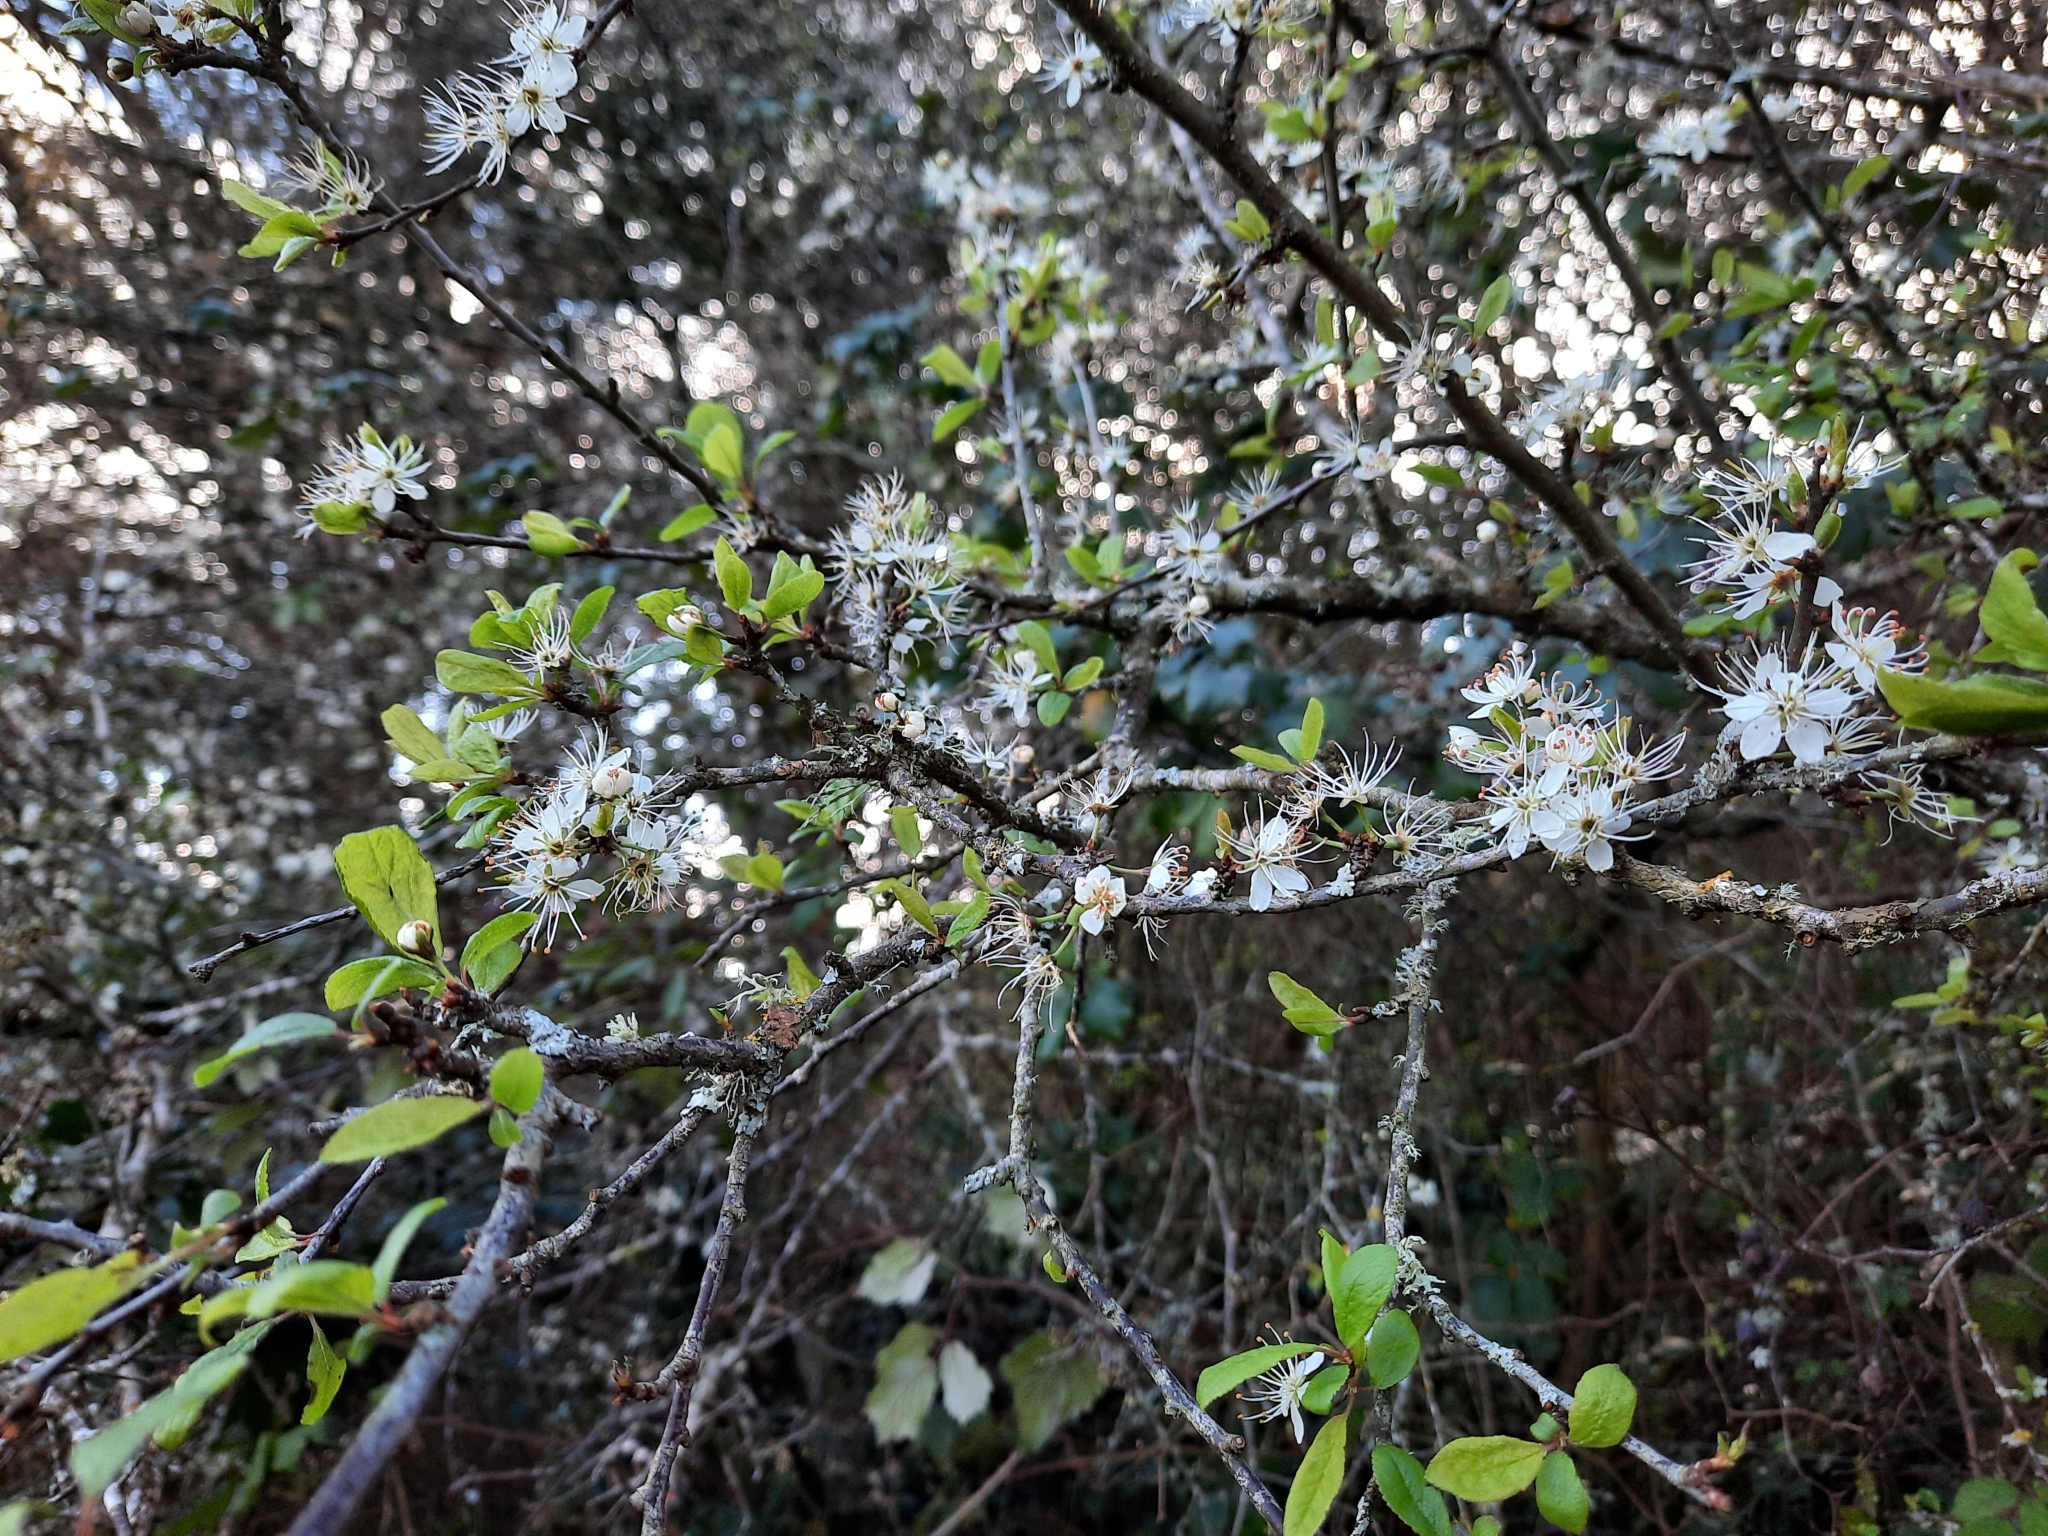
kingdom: Plantae
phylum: Tracheophyta
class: Magnoliopsida
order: Rosales
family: Rosaceae
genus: Prunus
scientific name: Prunus spinosa
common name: Blackthorn
